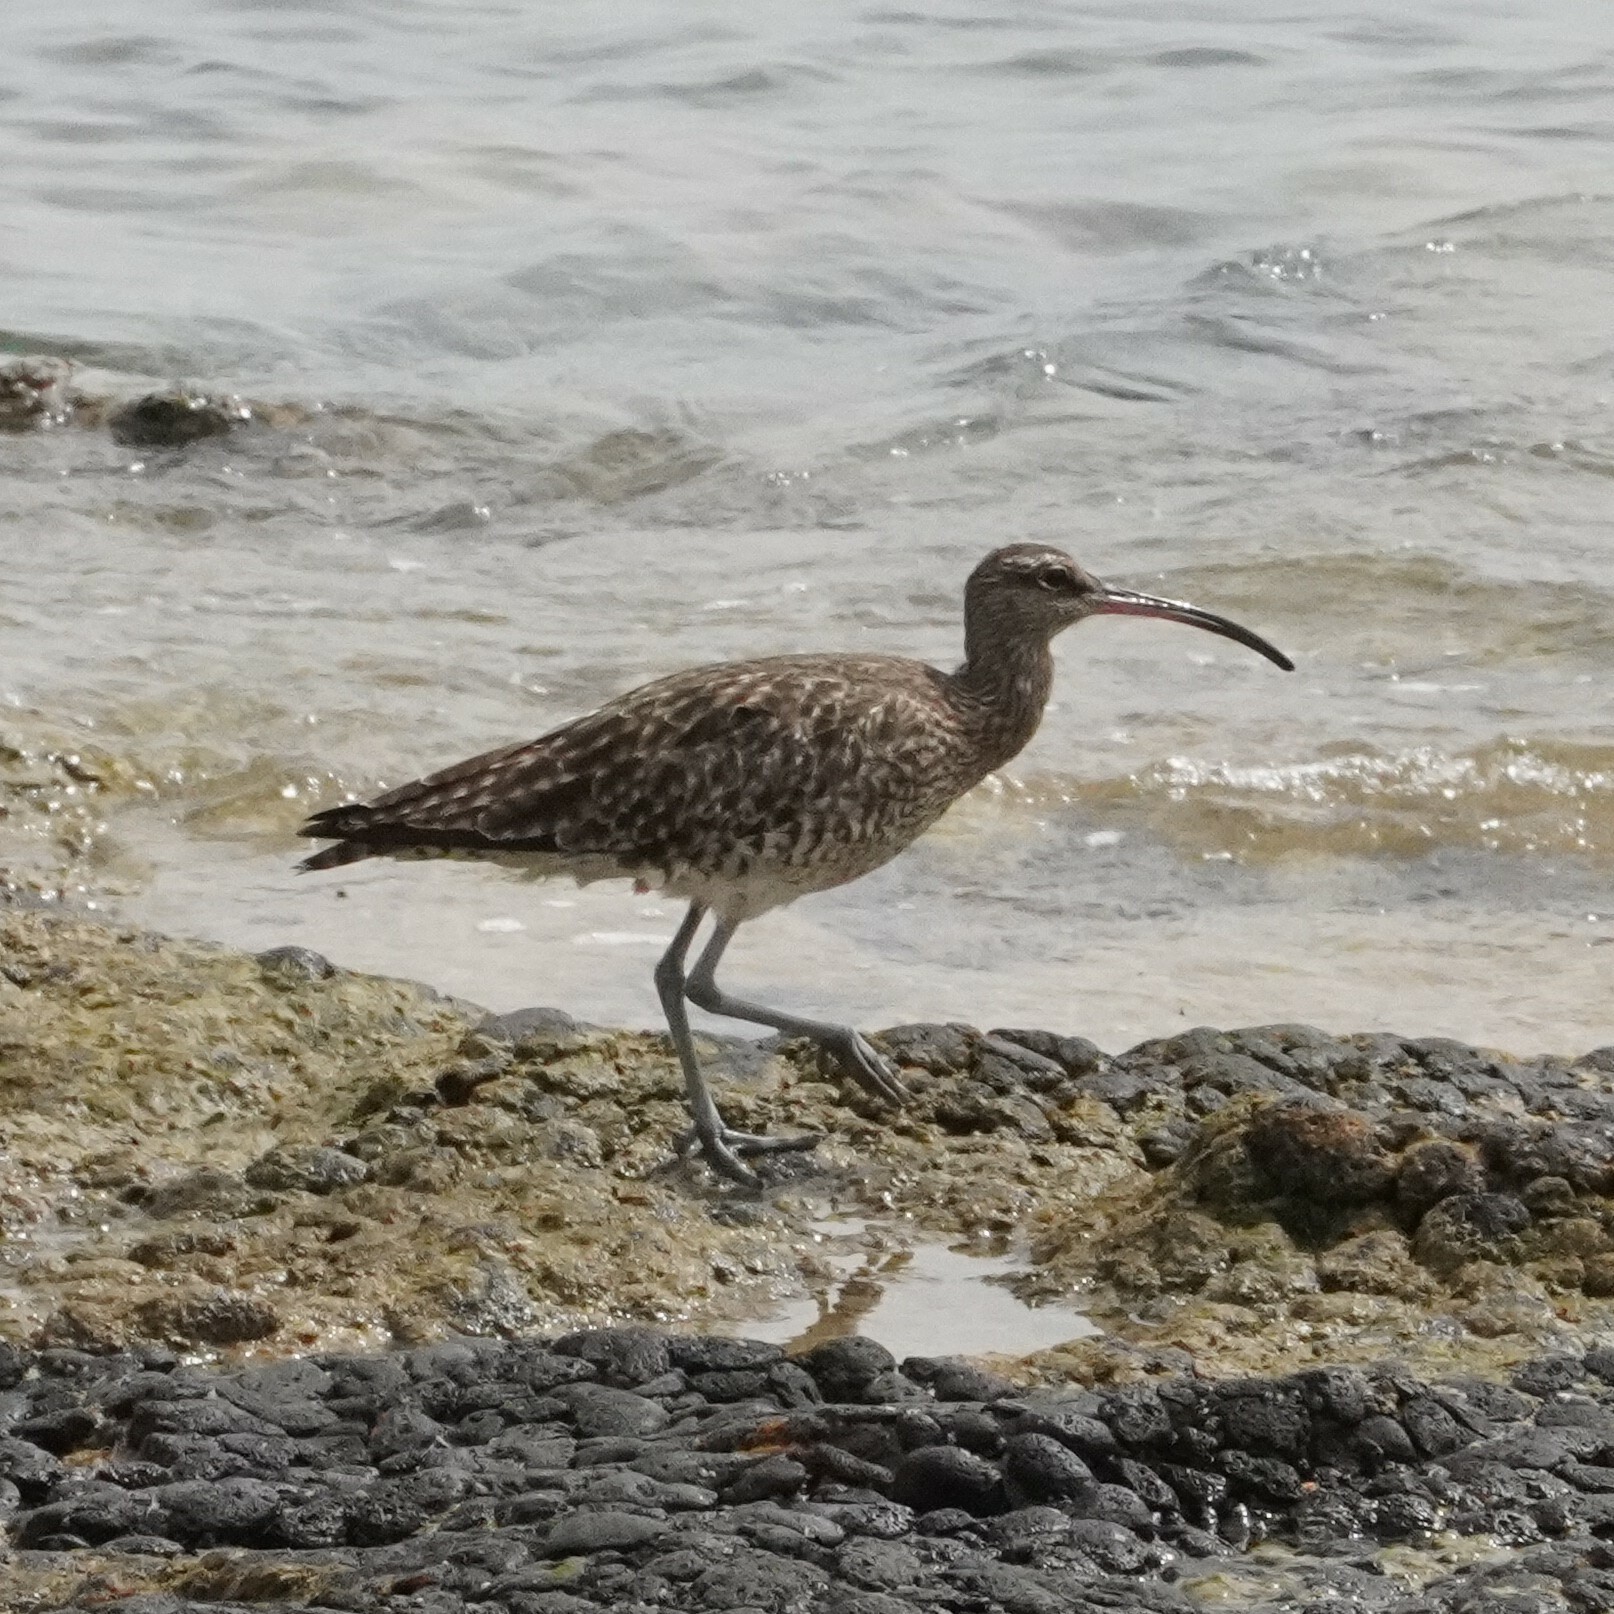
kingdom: Animalia
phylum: Chordata
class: Aves
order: Charadriiformes
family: Scolopacidae
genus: Numenius
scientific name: Numenius phaeopus
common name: Whimbrel
